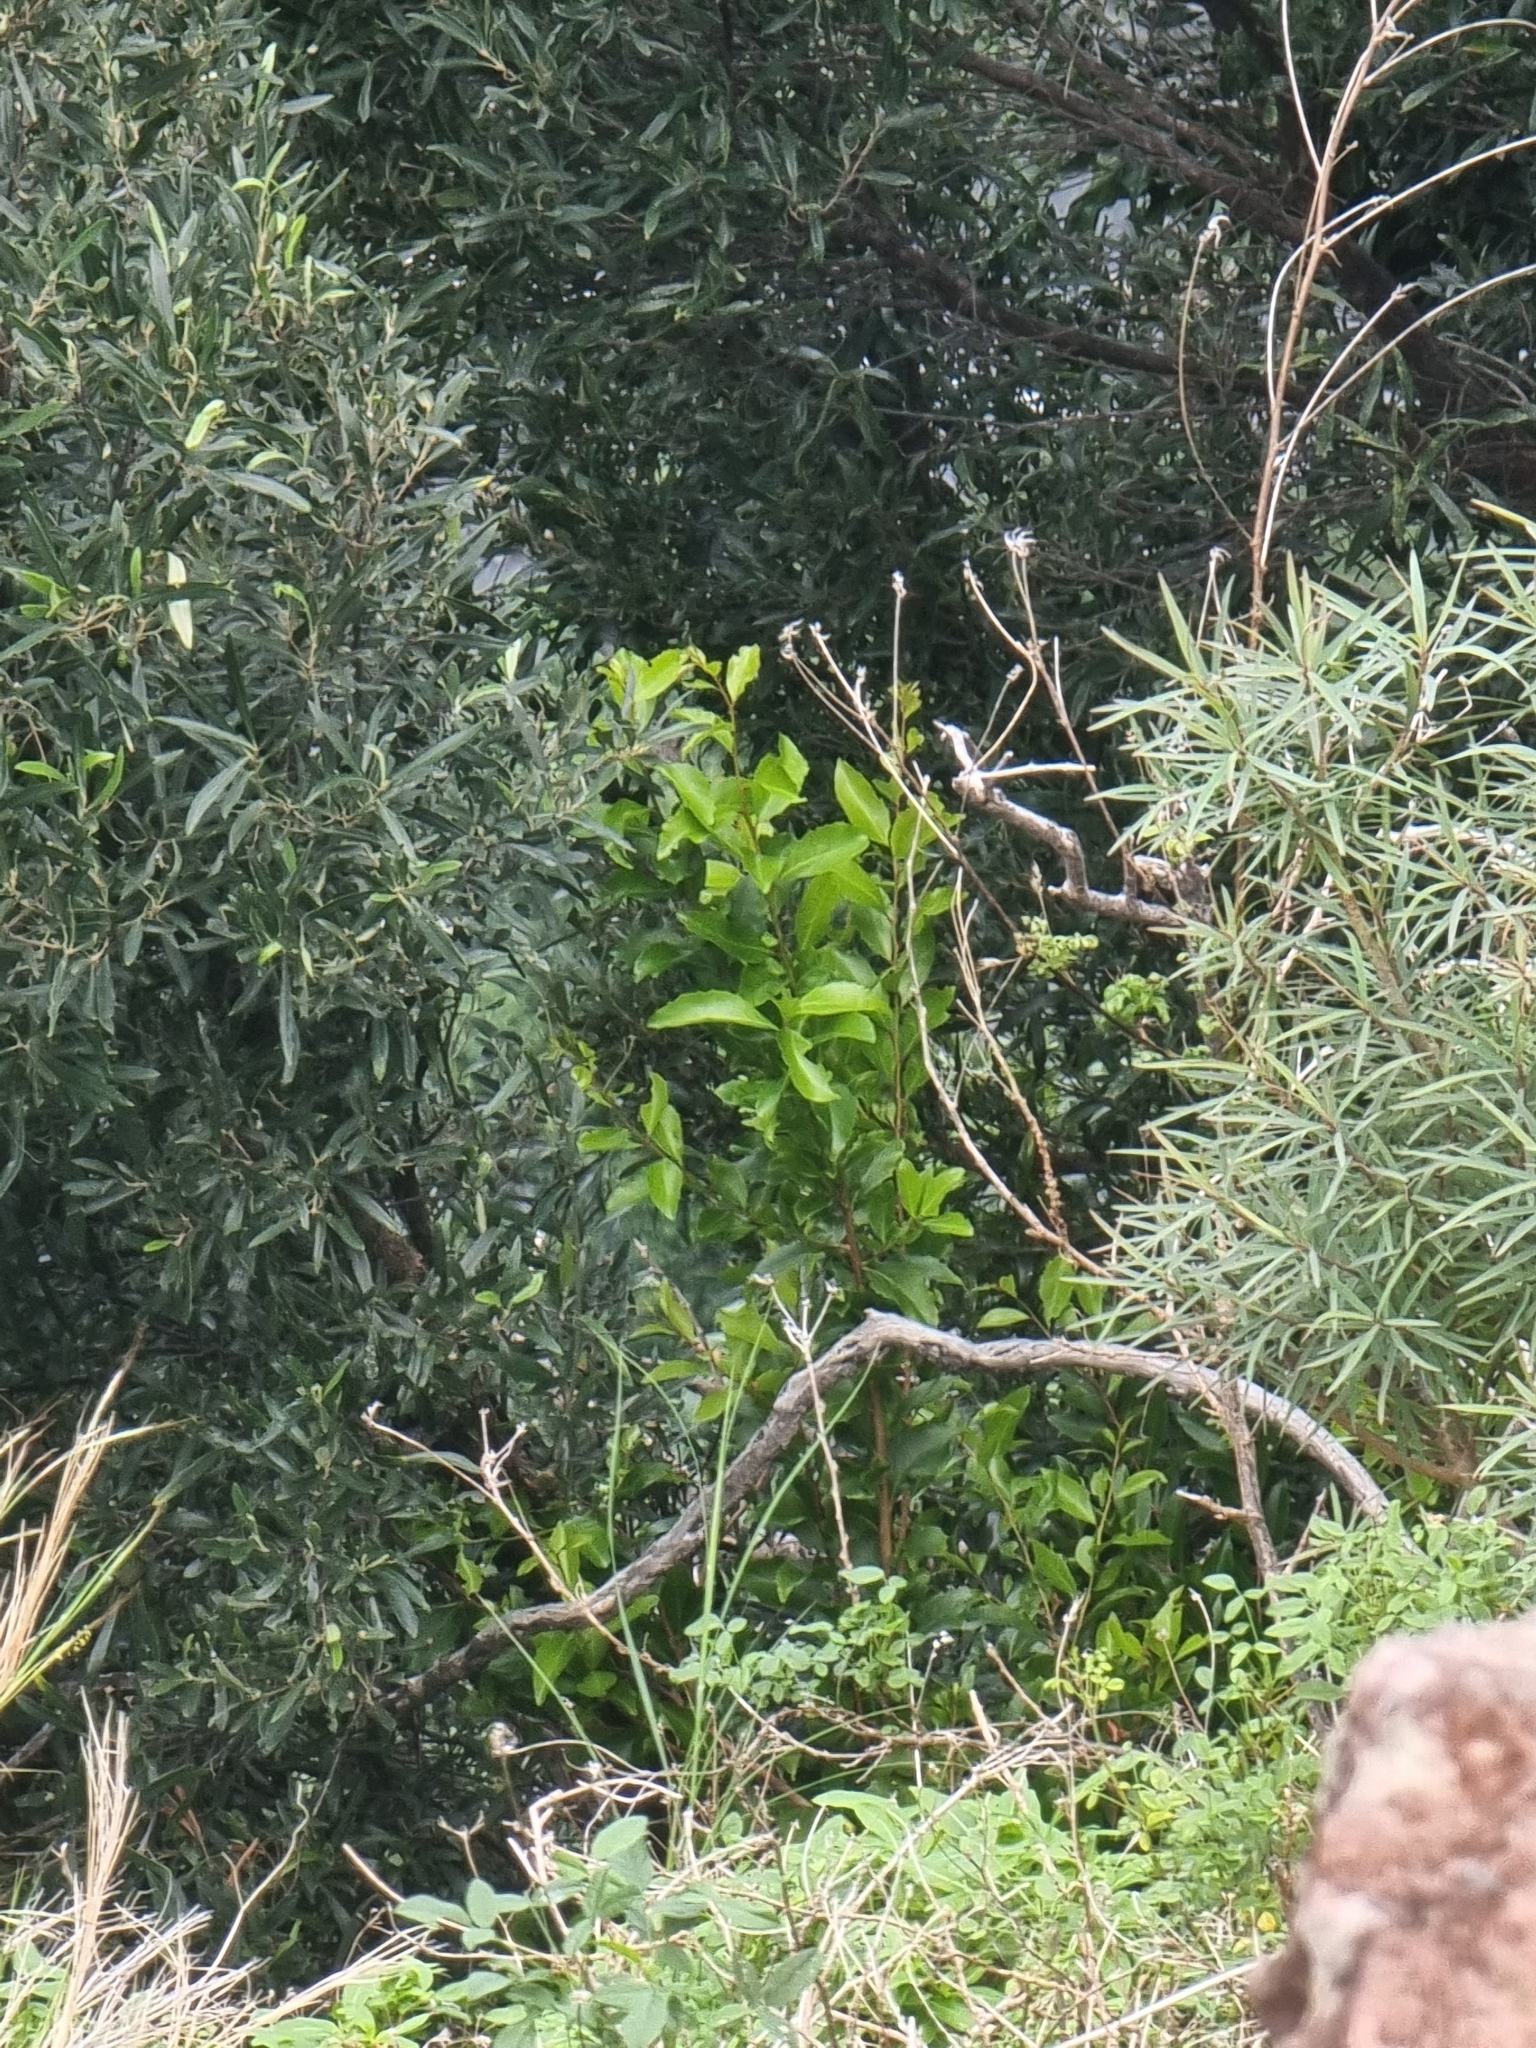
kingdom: Plantae
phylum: Tracheophyta
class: Magnoliopsida
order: Celastrales
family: Celastraceae
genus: Gymnosporia
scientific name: Gymnosporia dryandri
